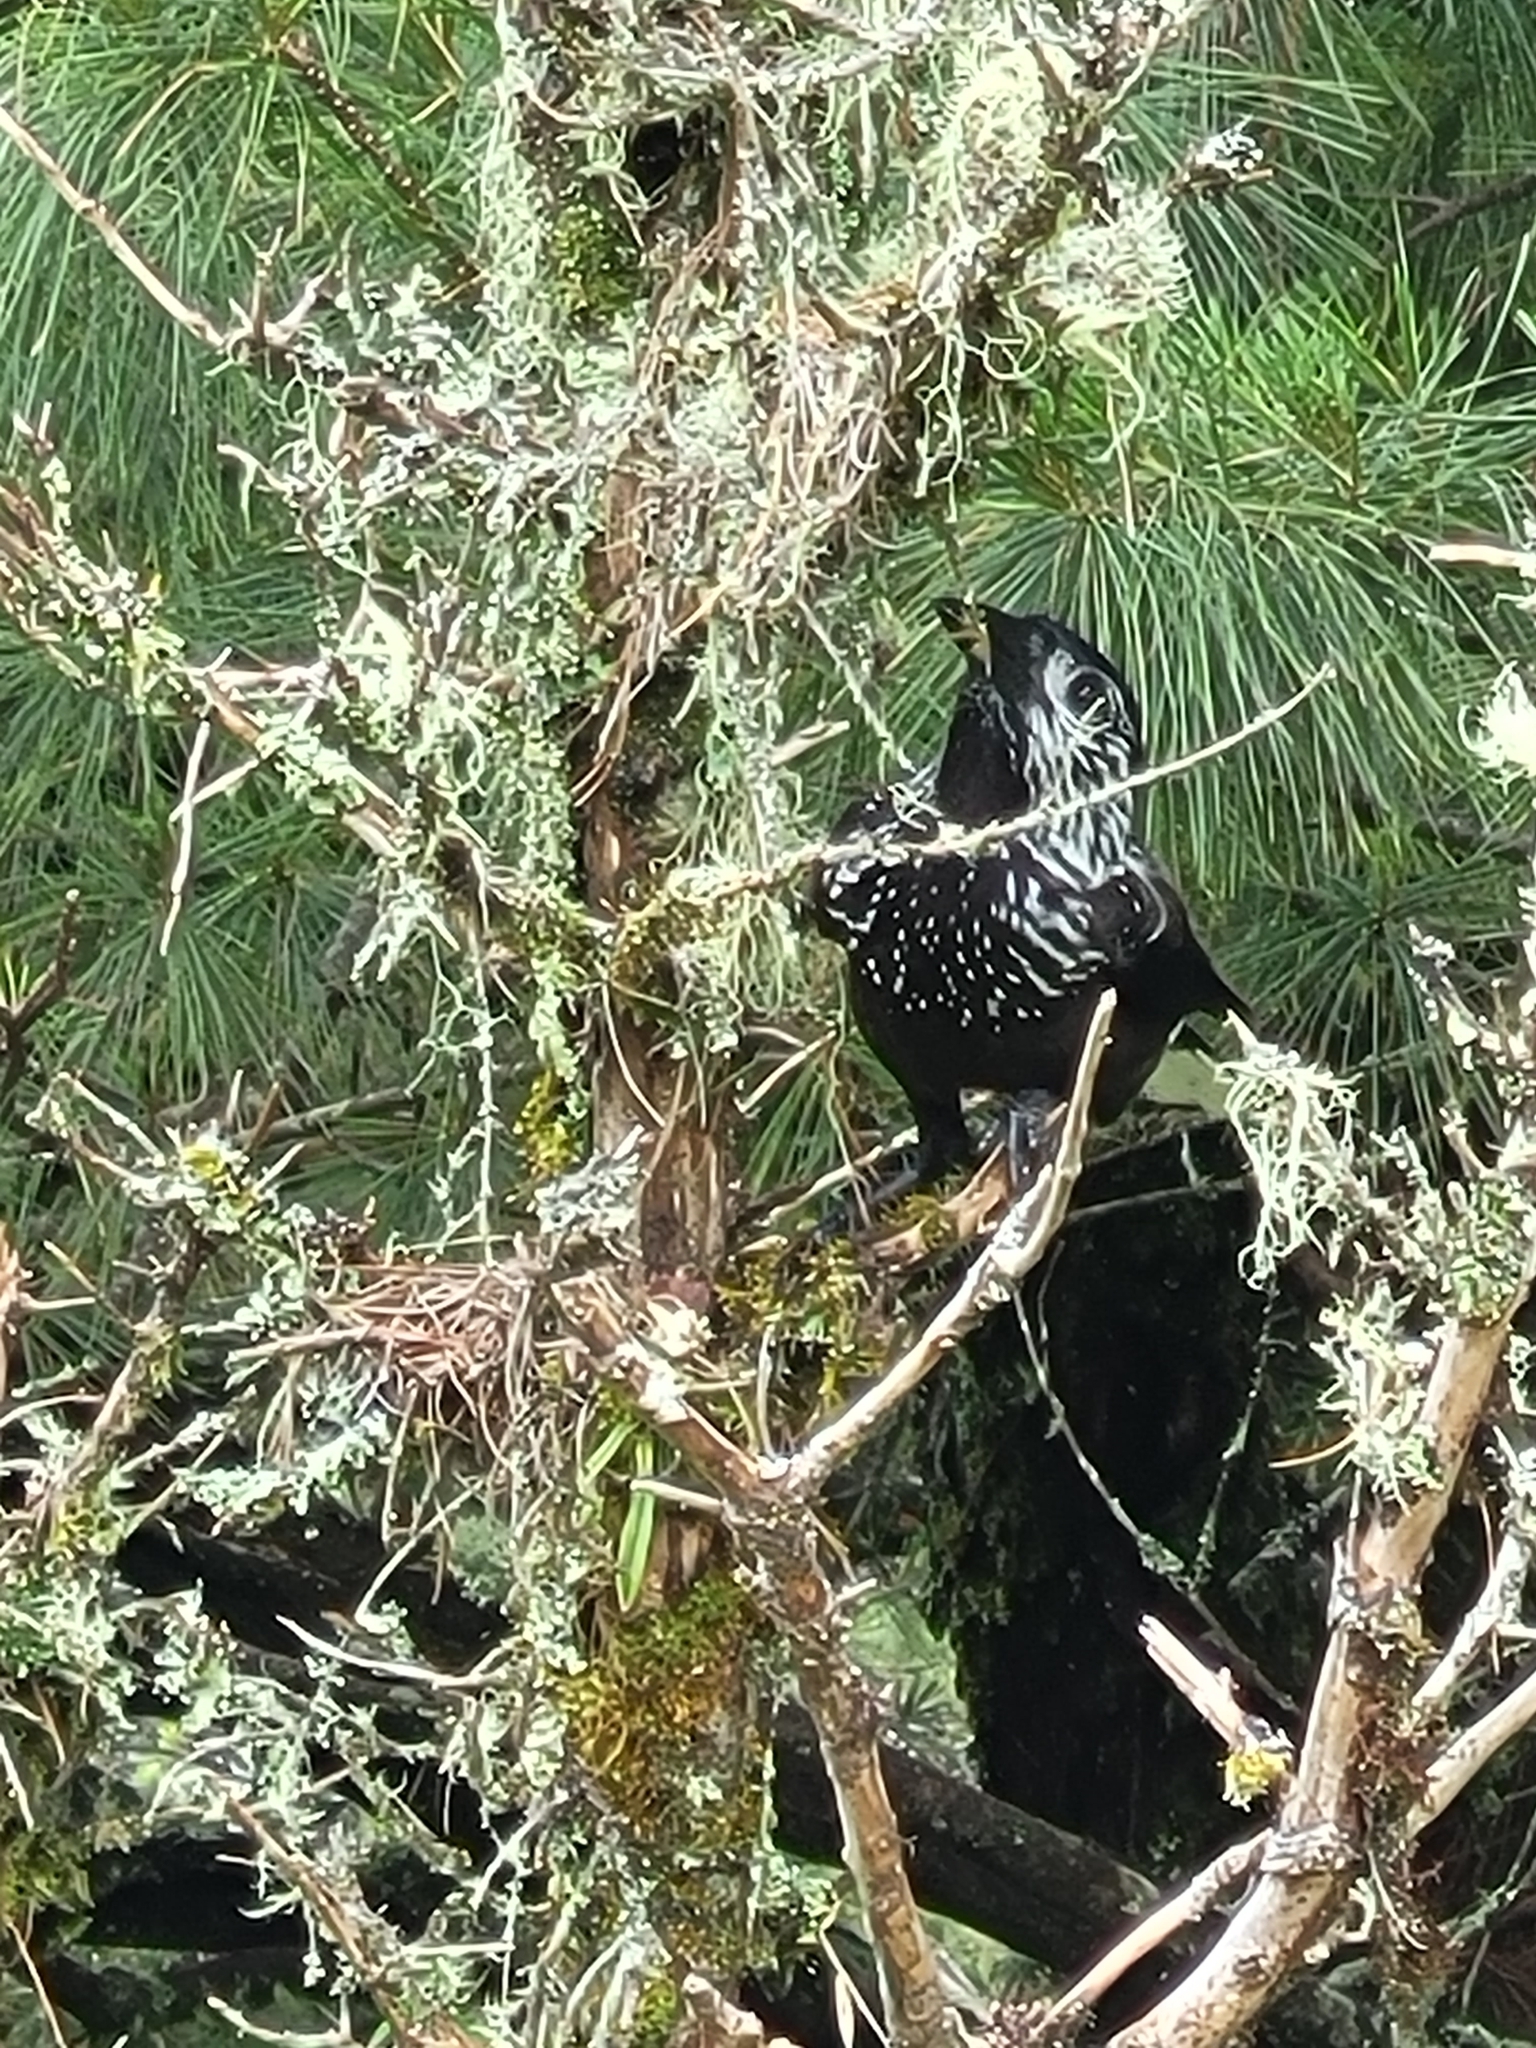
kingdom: Animalia
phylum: Chordata
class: Aves
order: Passeriformes
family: Corvidae
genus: Nucifraga
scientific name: Nucifraga caryocatactes
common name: Spotted nutcracker
